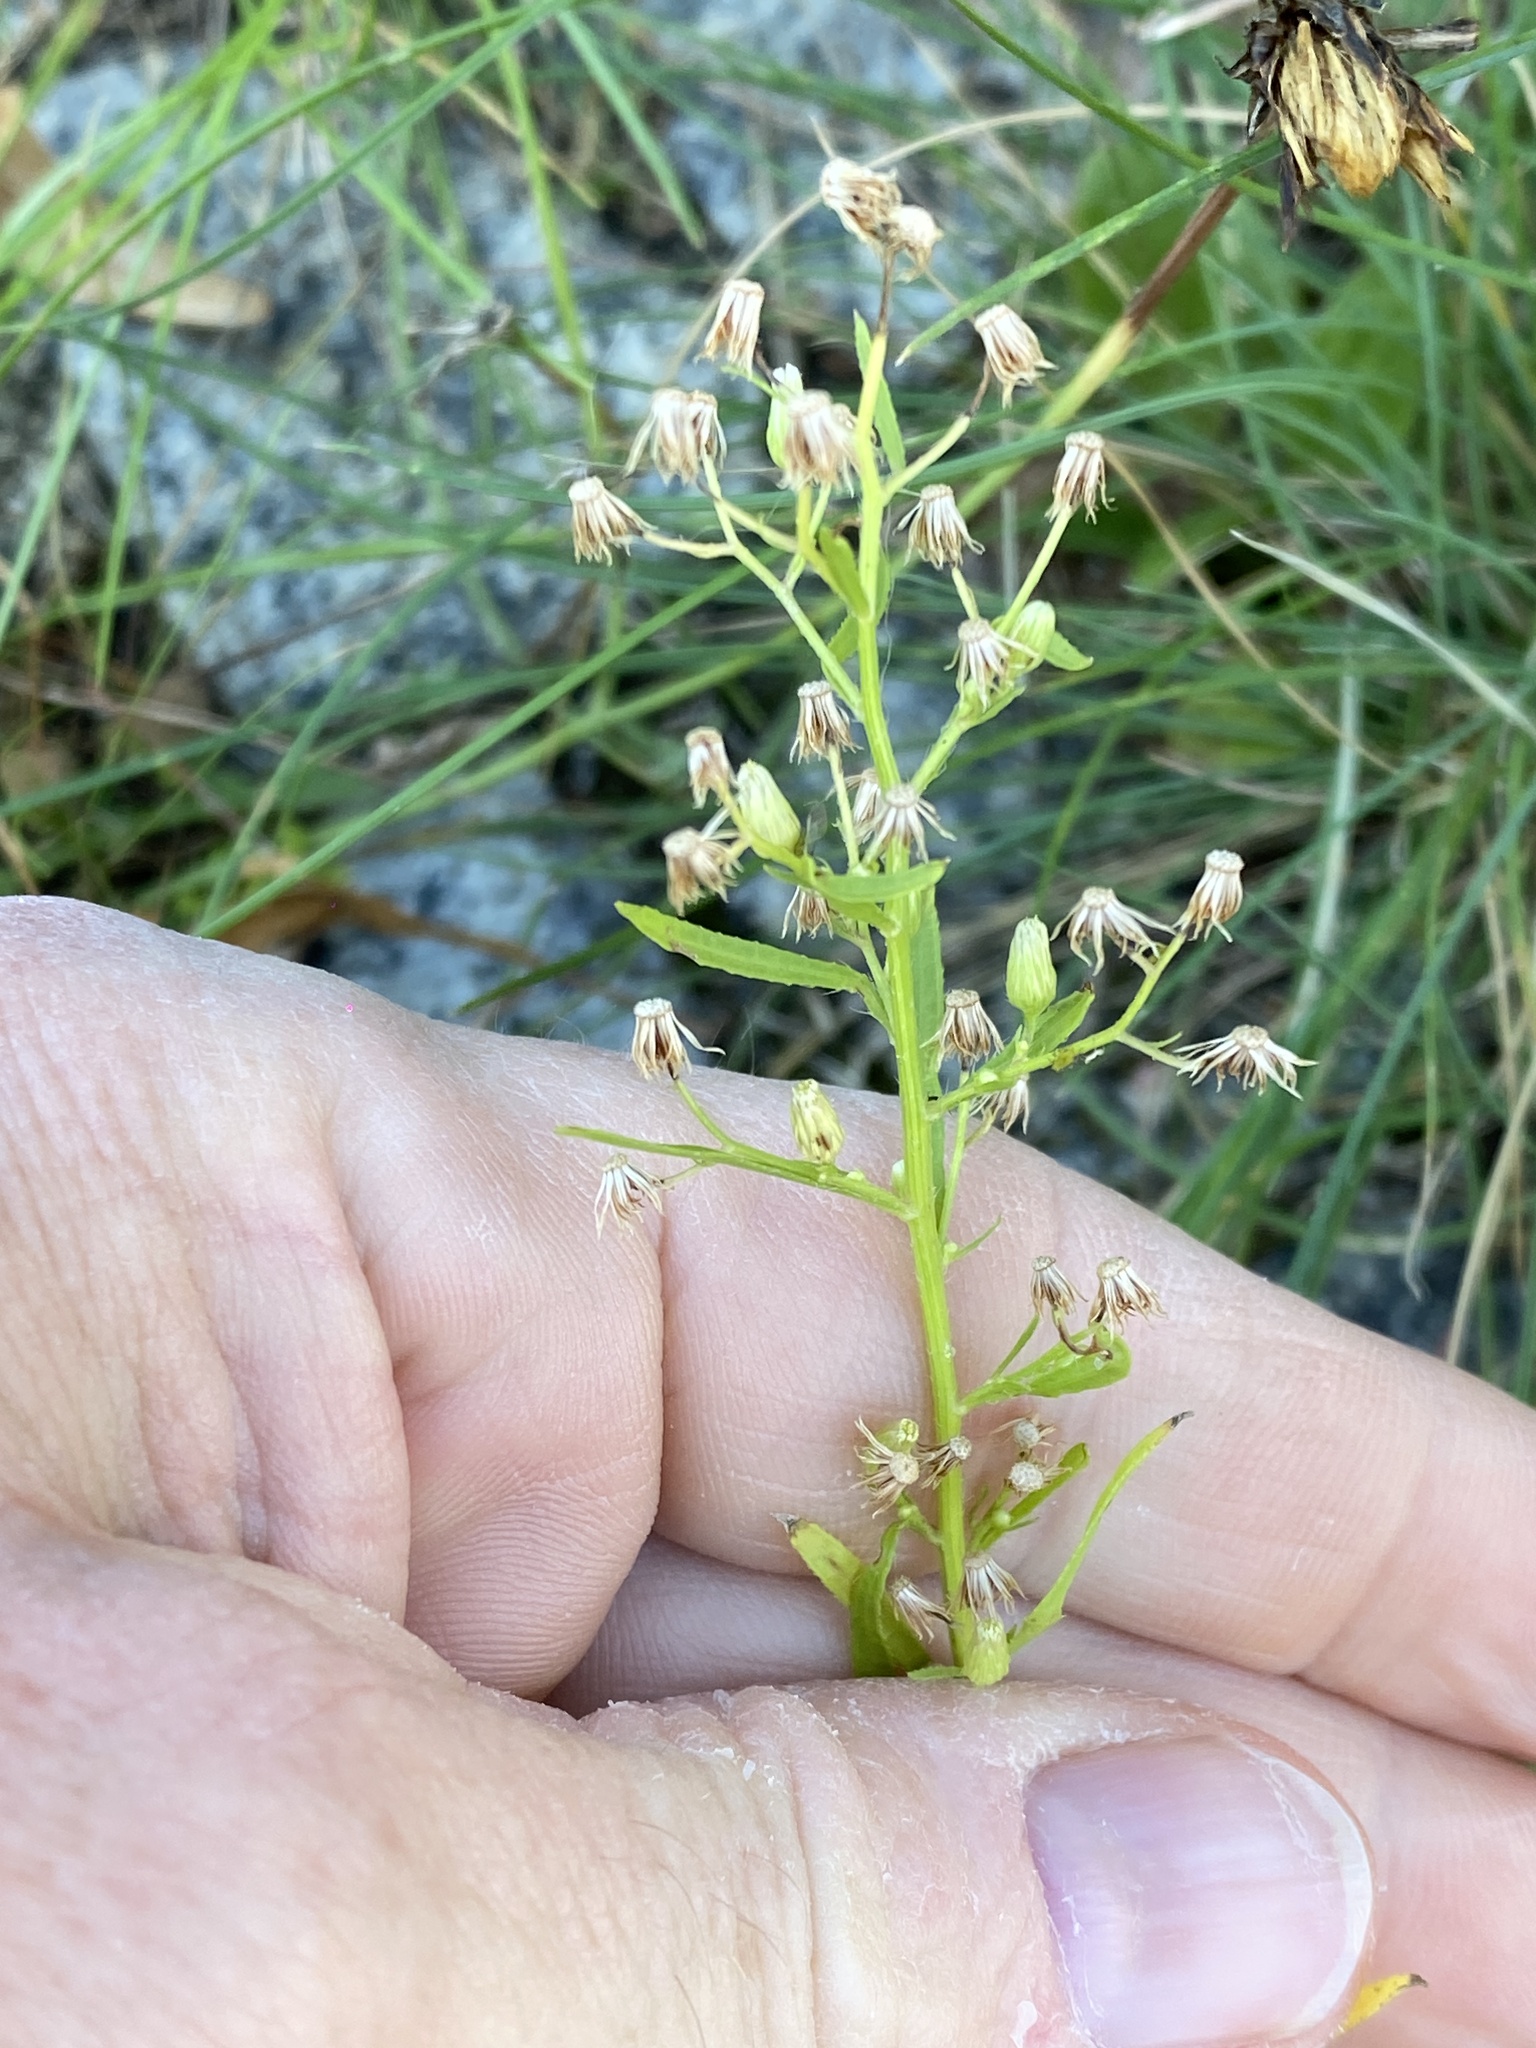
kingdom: Plantae
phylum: Tracheophyta
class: Magnoliopsida
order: Asterales
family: Asteraceae
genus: Erigeron
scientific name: Erigeron canadensis
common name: Canadian fleabane
